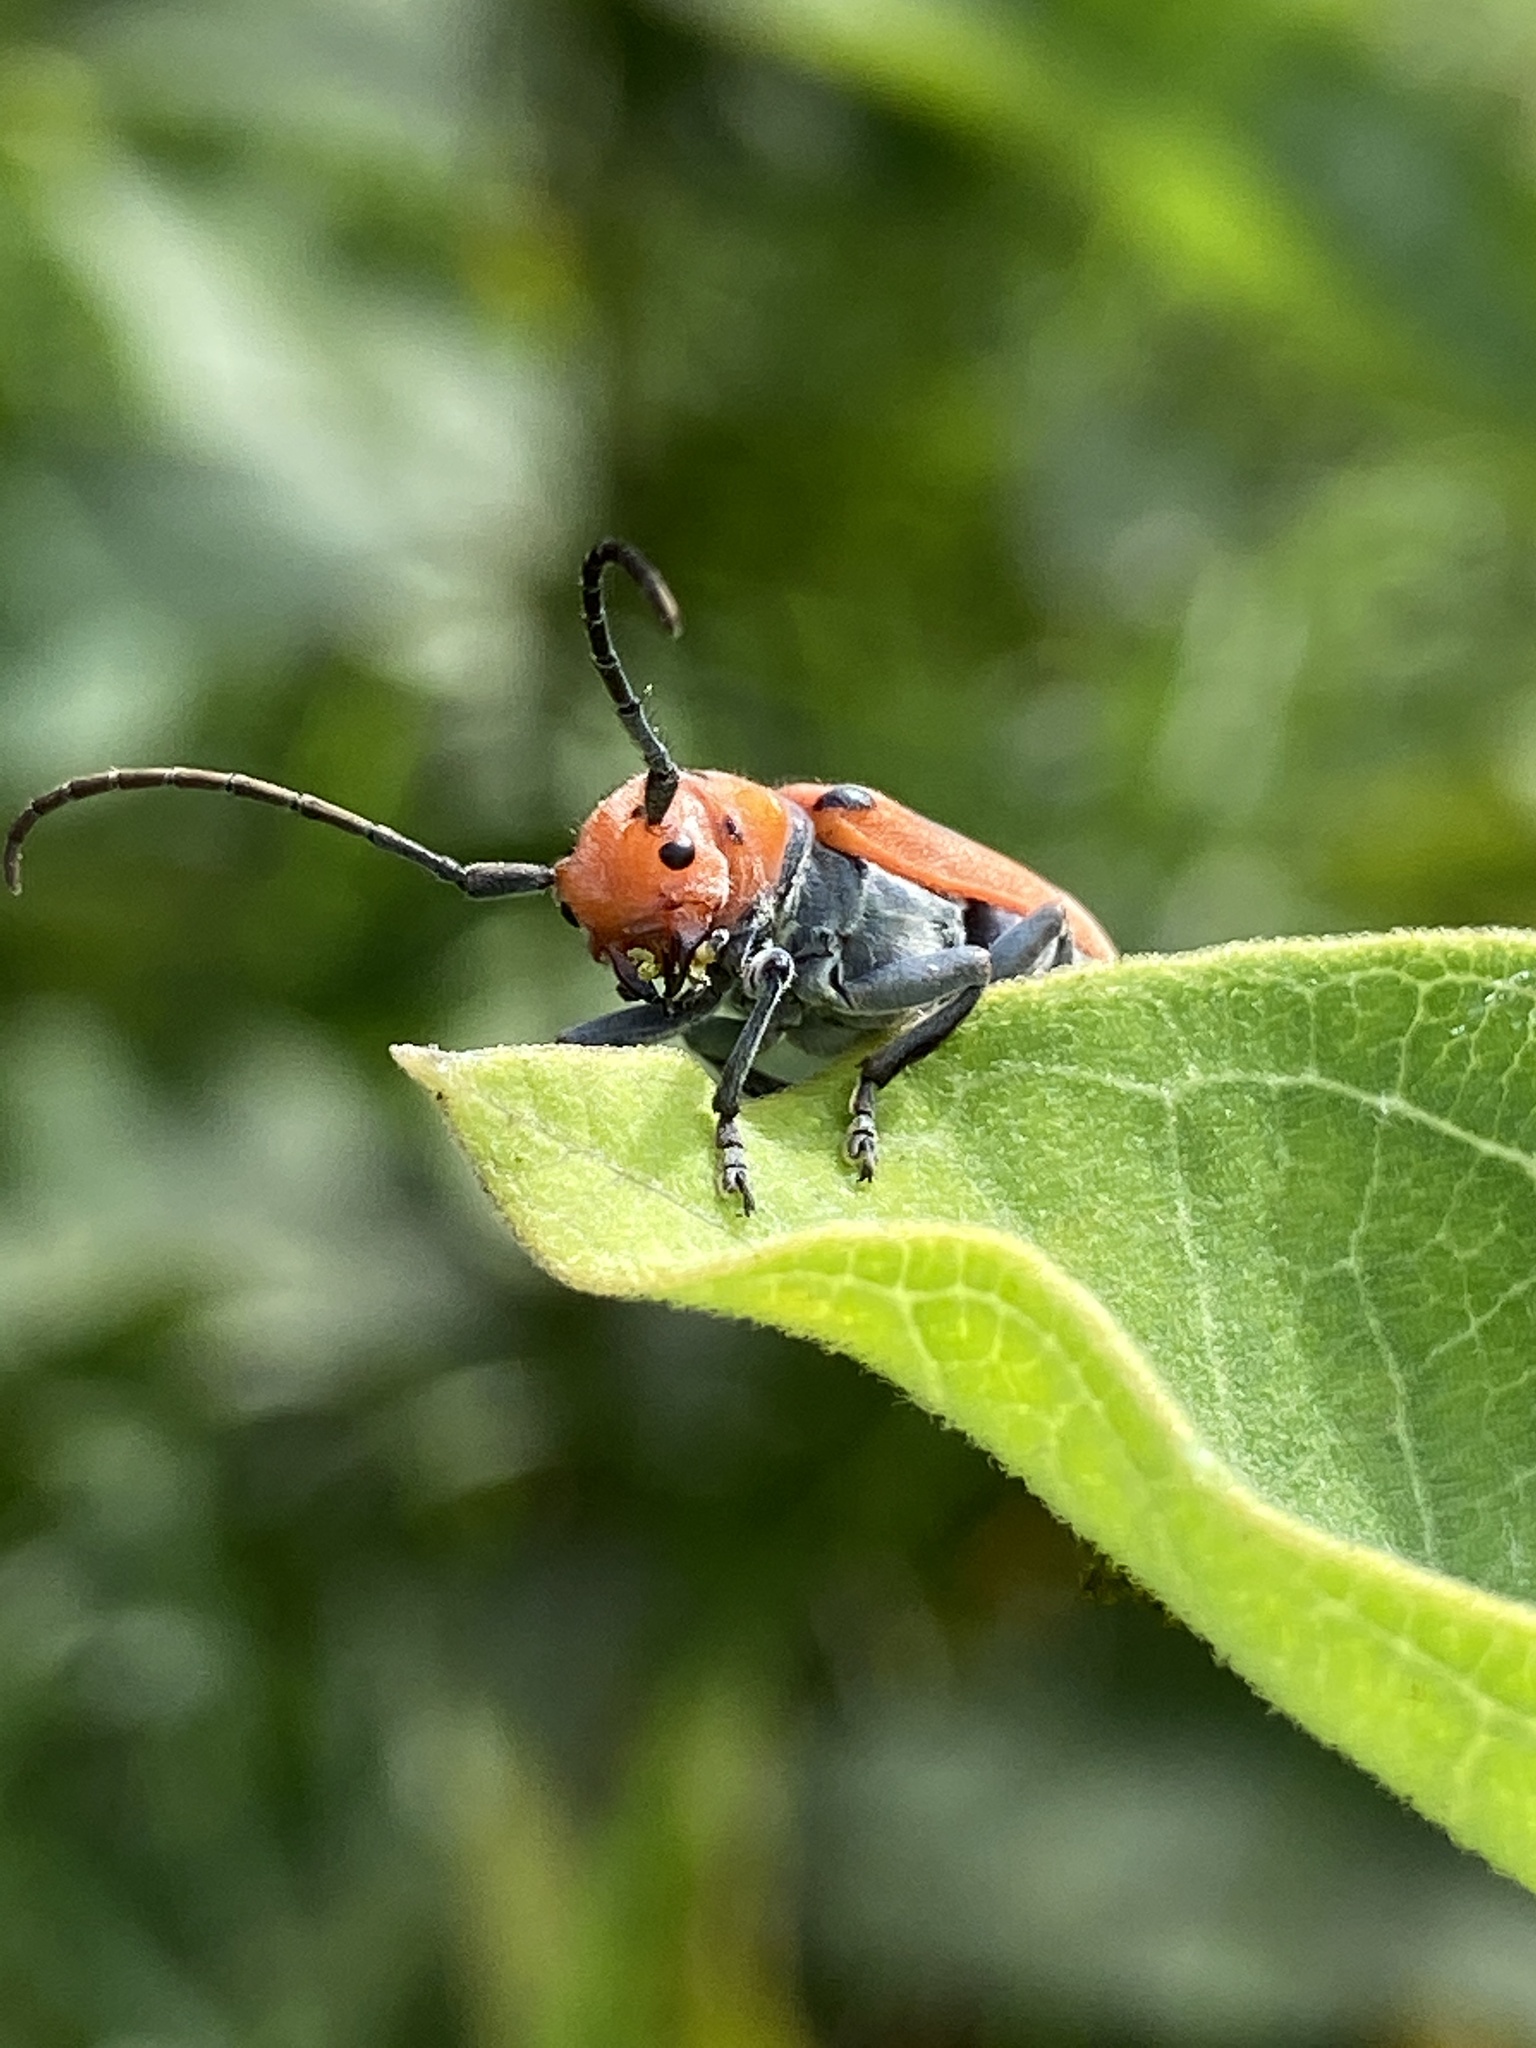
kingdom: Animalia
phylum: Arthropoda
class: Insecta
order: Coleoptera
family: Cerambycidae
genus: Tetraopes
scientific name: Tetraopes tetrophthalmus
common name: Red milkweed beetle
